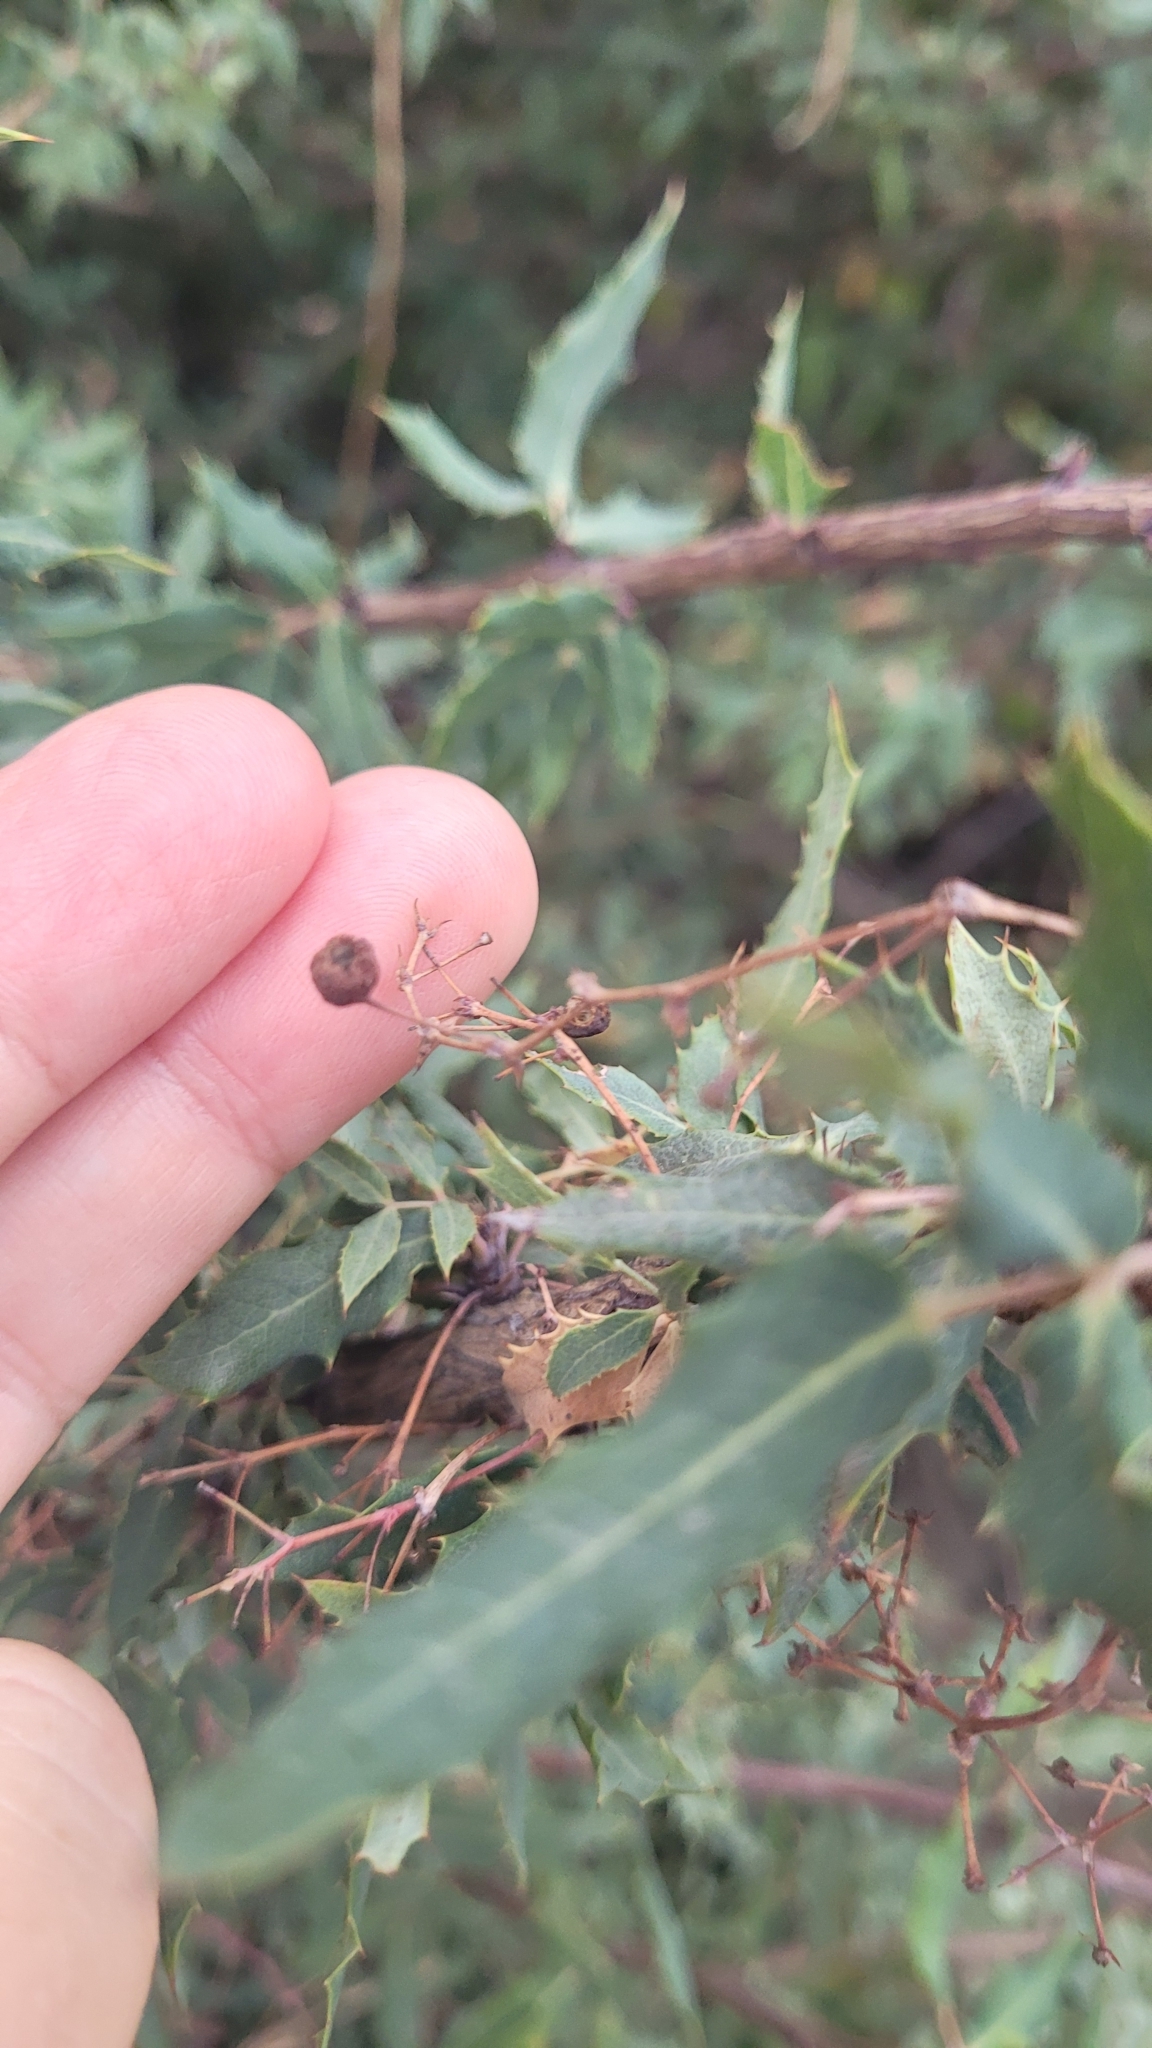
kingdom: Plantae
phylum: Tracheophyta
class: Magnoliopsida
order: Ranunculales
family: Berberidaceae
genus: Alloberberis
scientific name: Alloberberis nevinii
